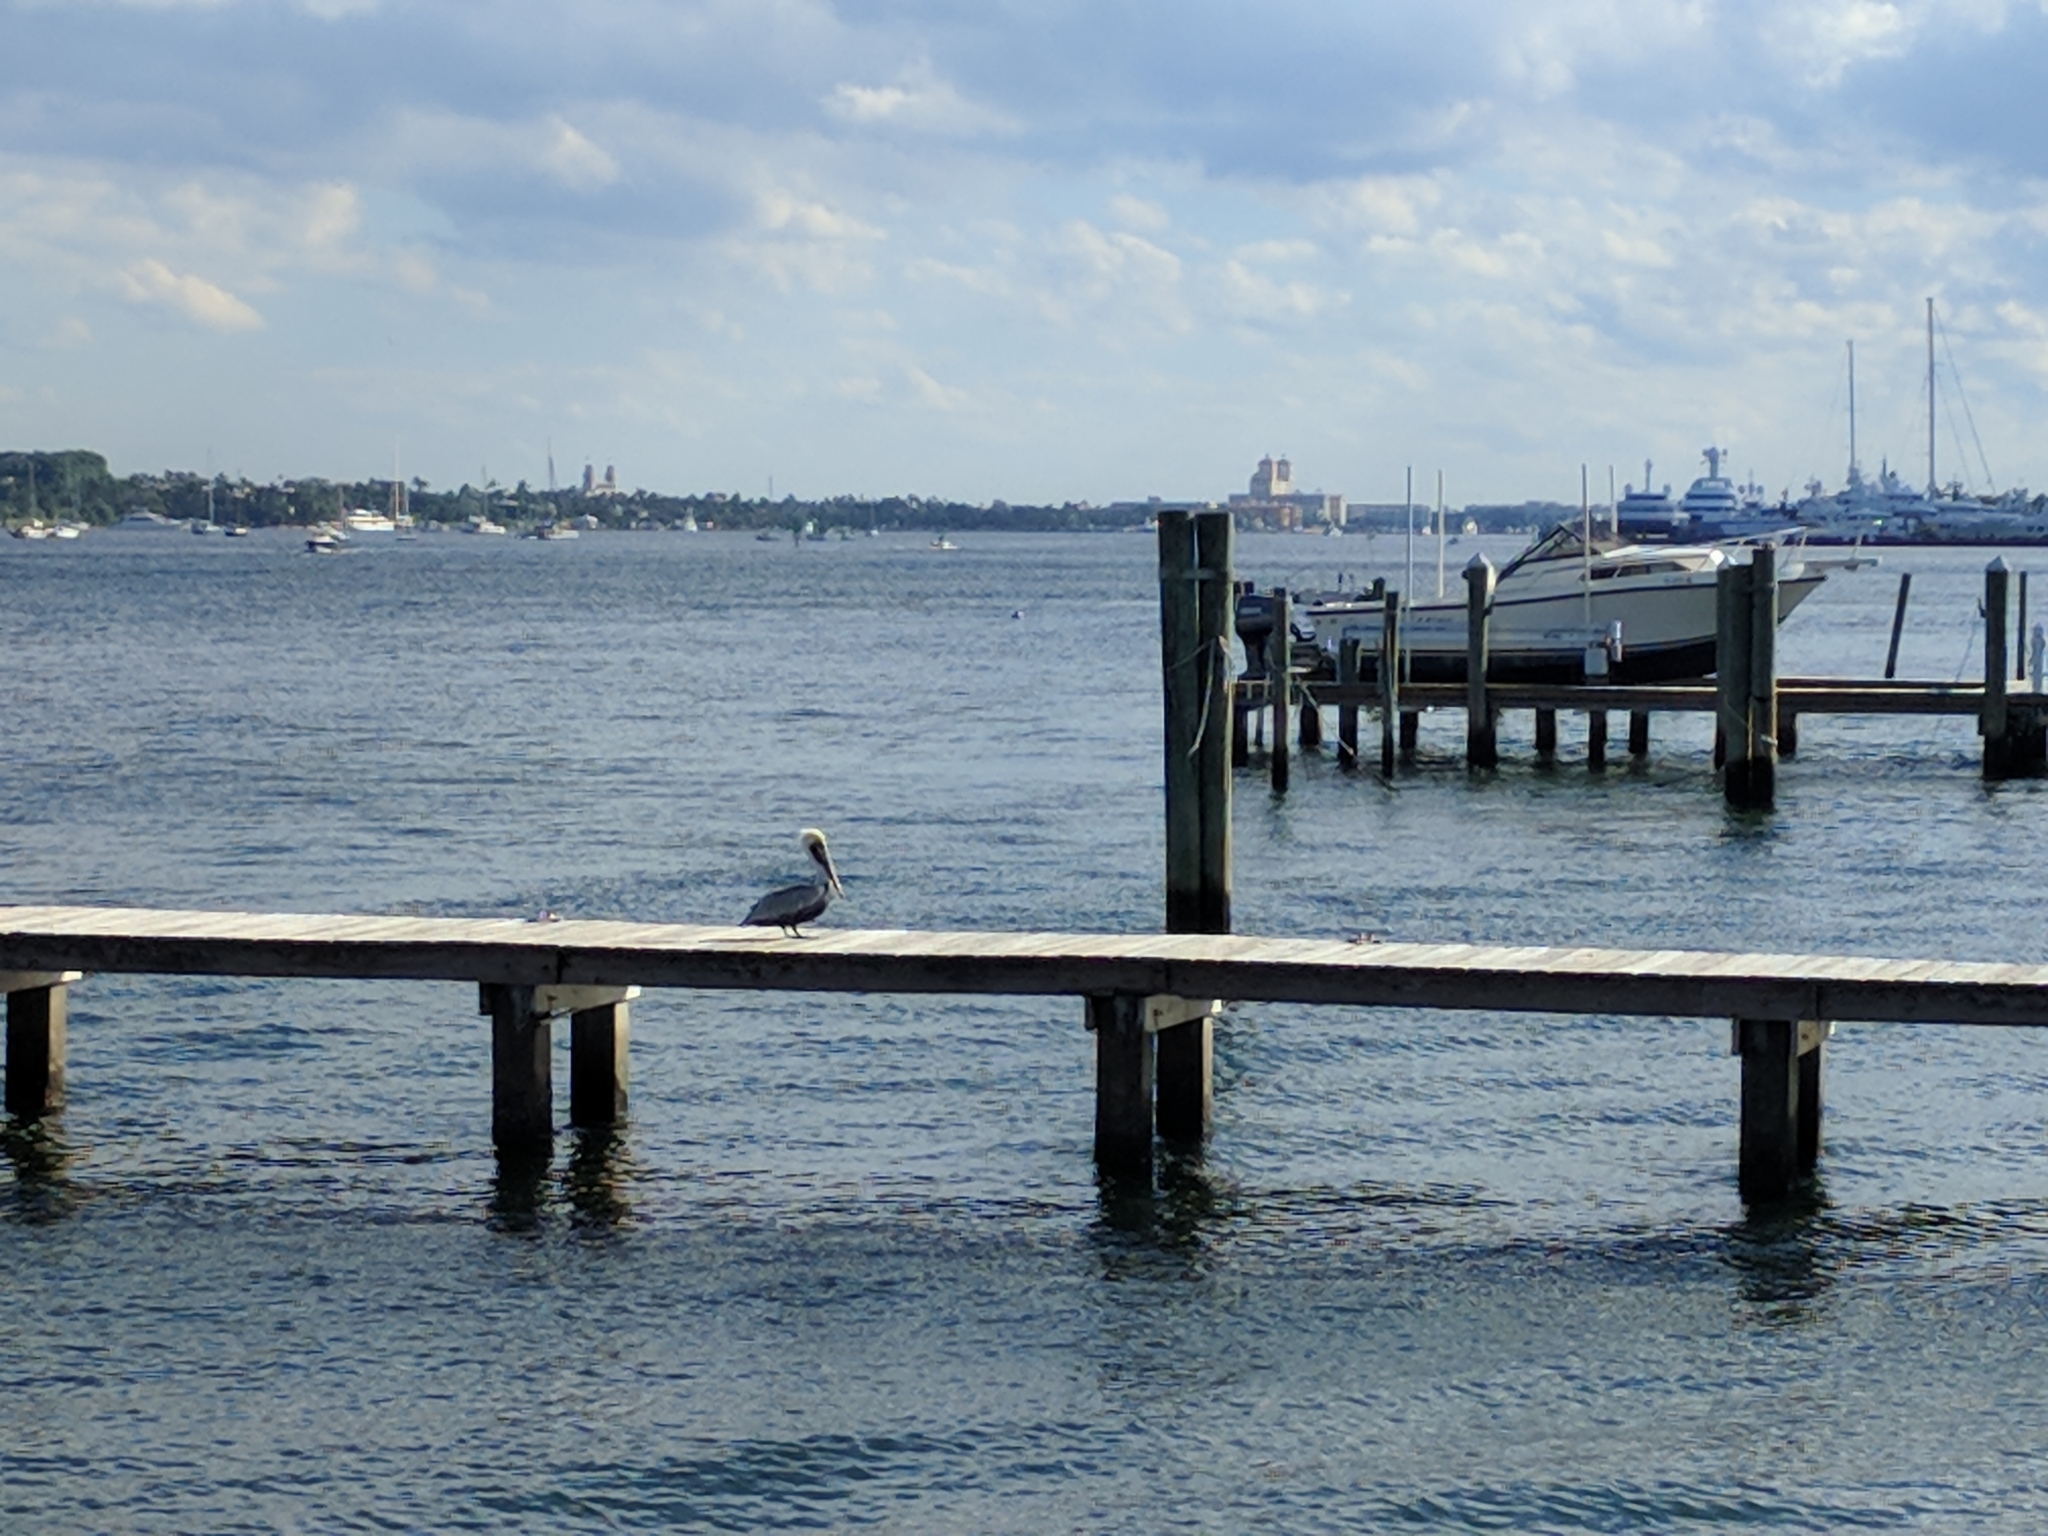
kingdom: Animalia
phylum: Chordata
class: Aves
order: Pelecaniformes
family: Pelecanidae
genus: Pelecanus
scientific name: Pelecanus occidentalis
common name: Brown pelican
